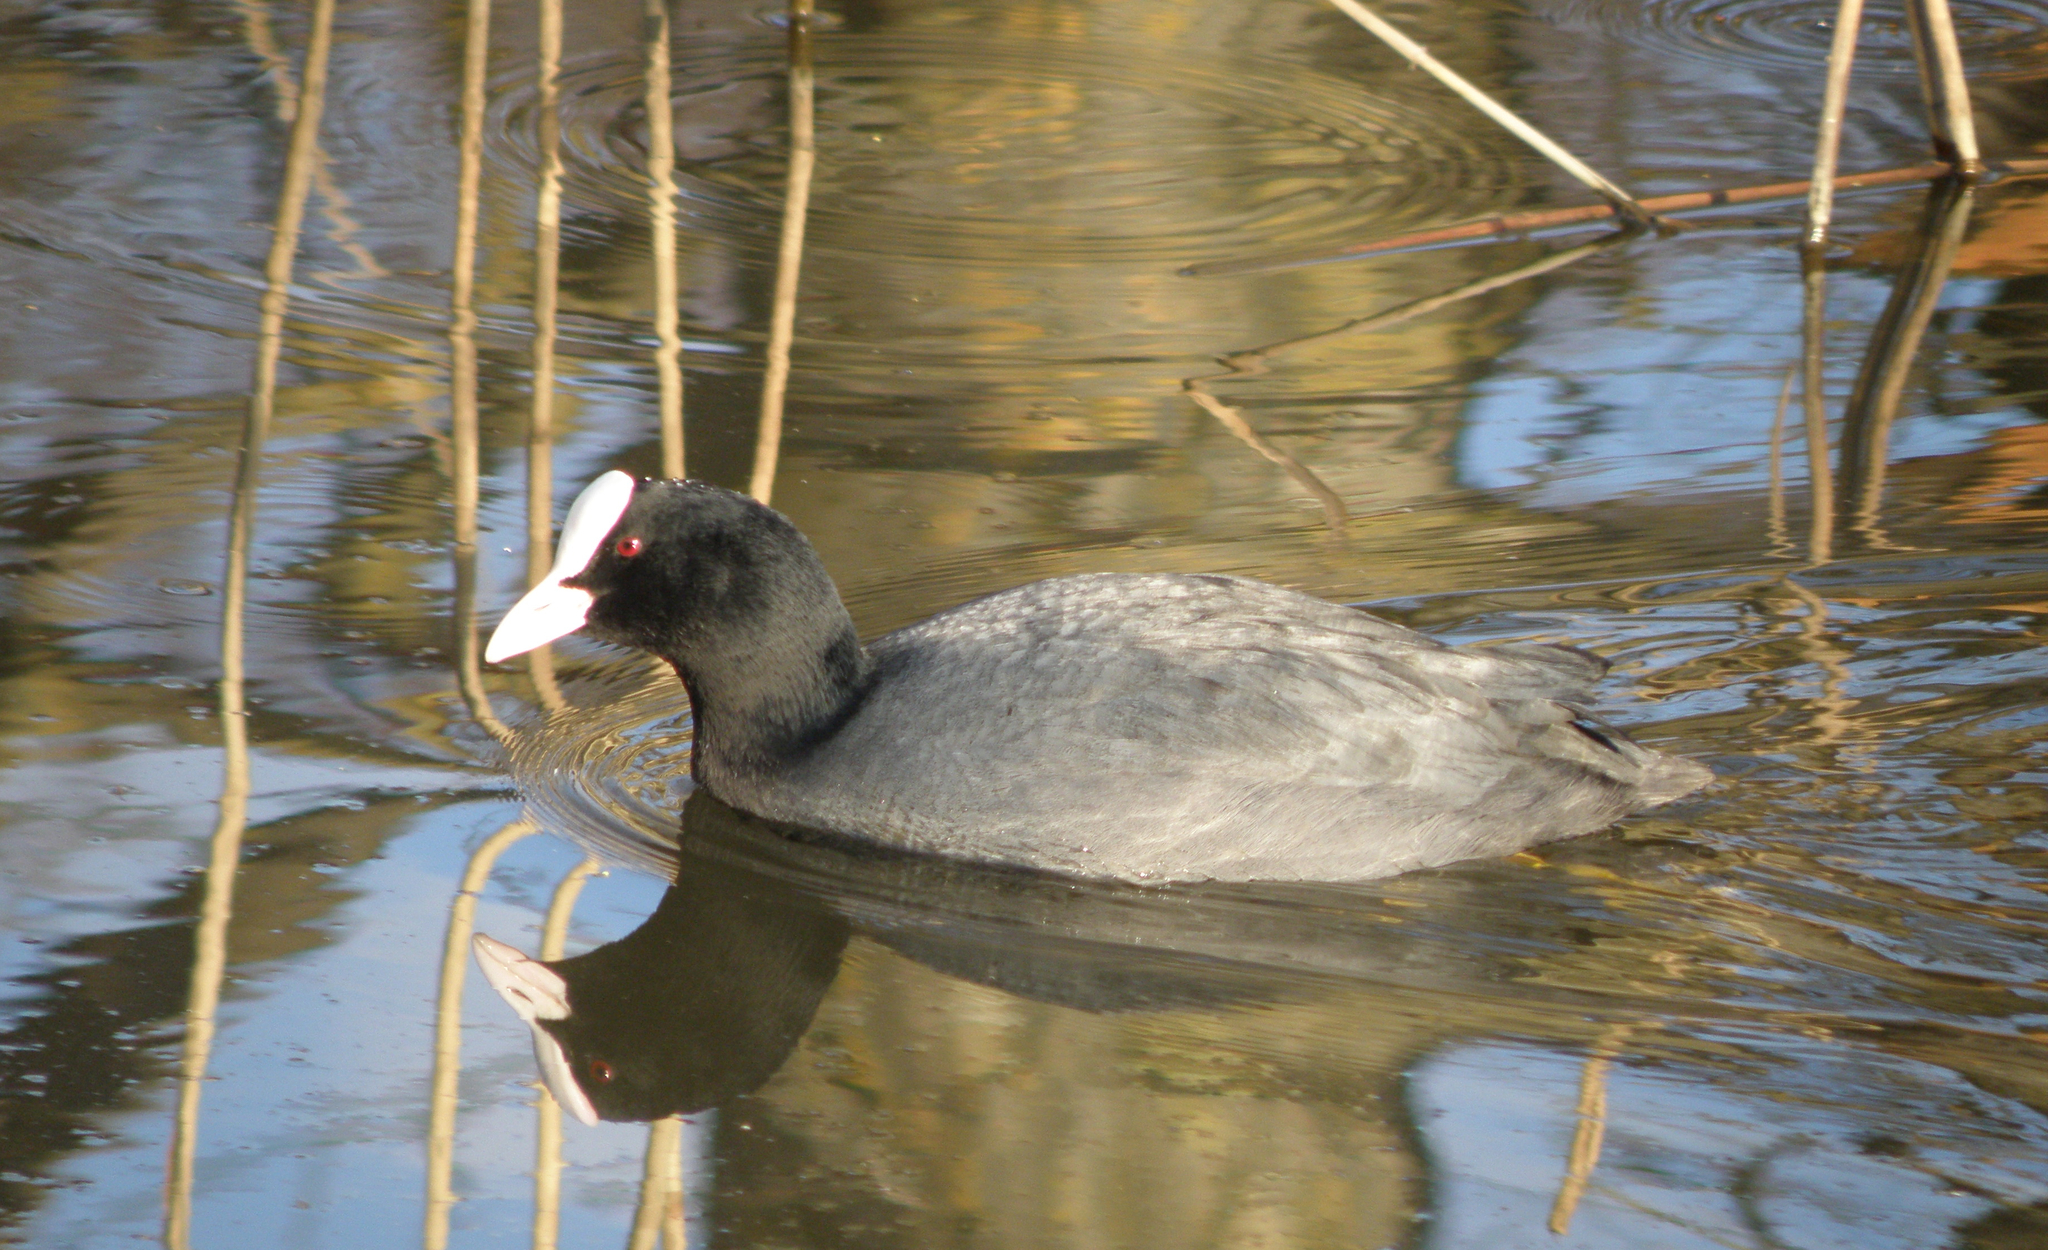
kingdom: Animalia
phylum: Chordata
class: Aves
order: Gruiformes
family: Rallidae
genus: Fulica
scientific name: Fulica atra
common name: Eurasian coot
